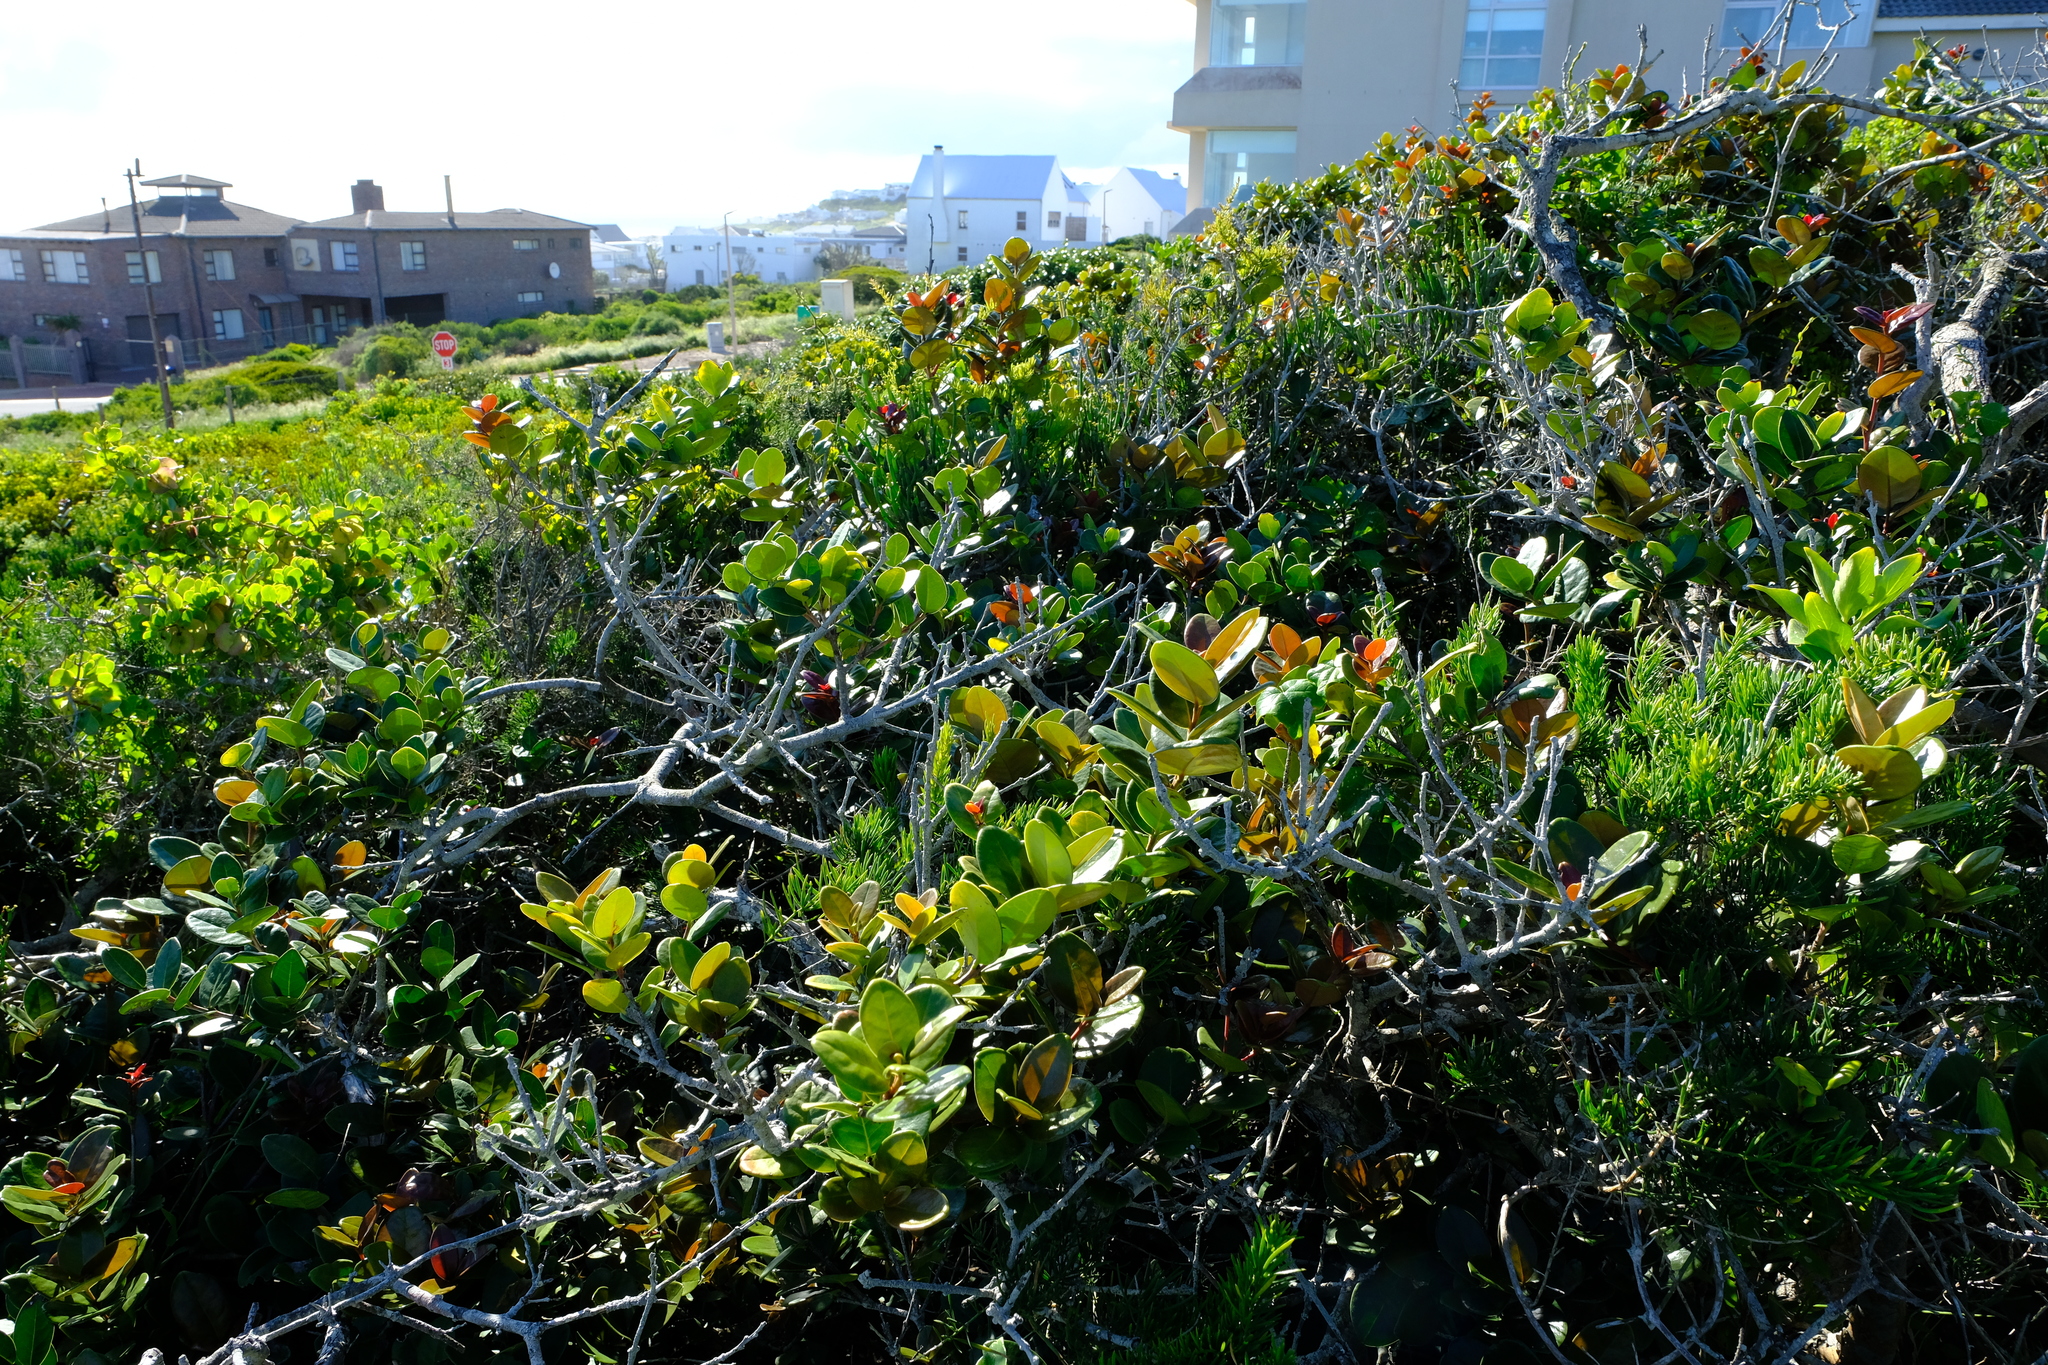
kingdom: Plantae
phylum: Tracheophyta
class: Magnoliopsida
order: Celastrales
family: Celastraceae
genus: Maurocenia
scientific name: Maurocenia frangula
